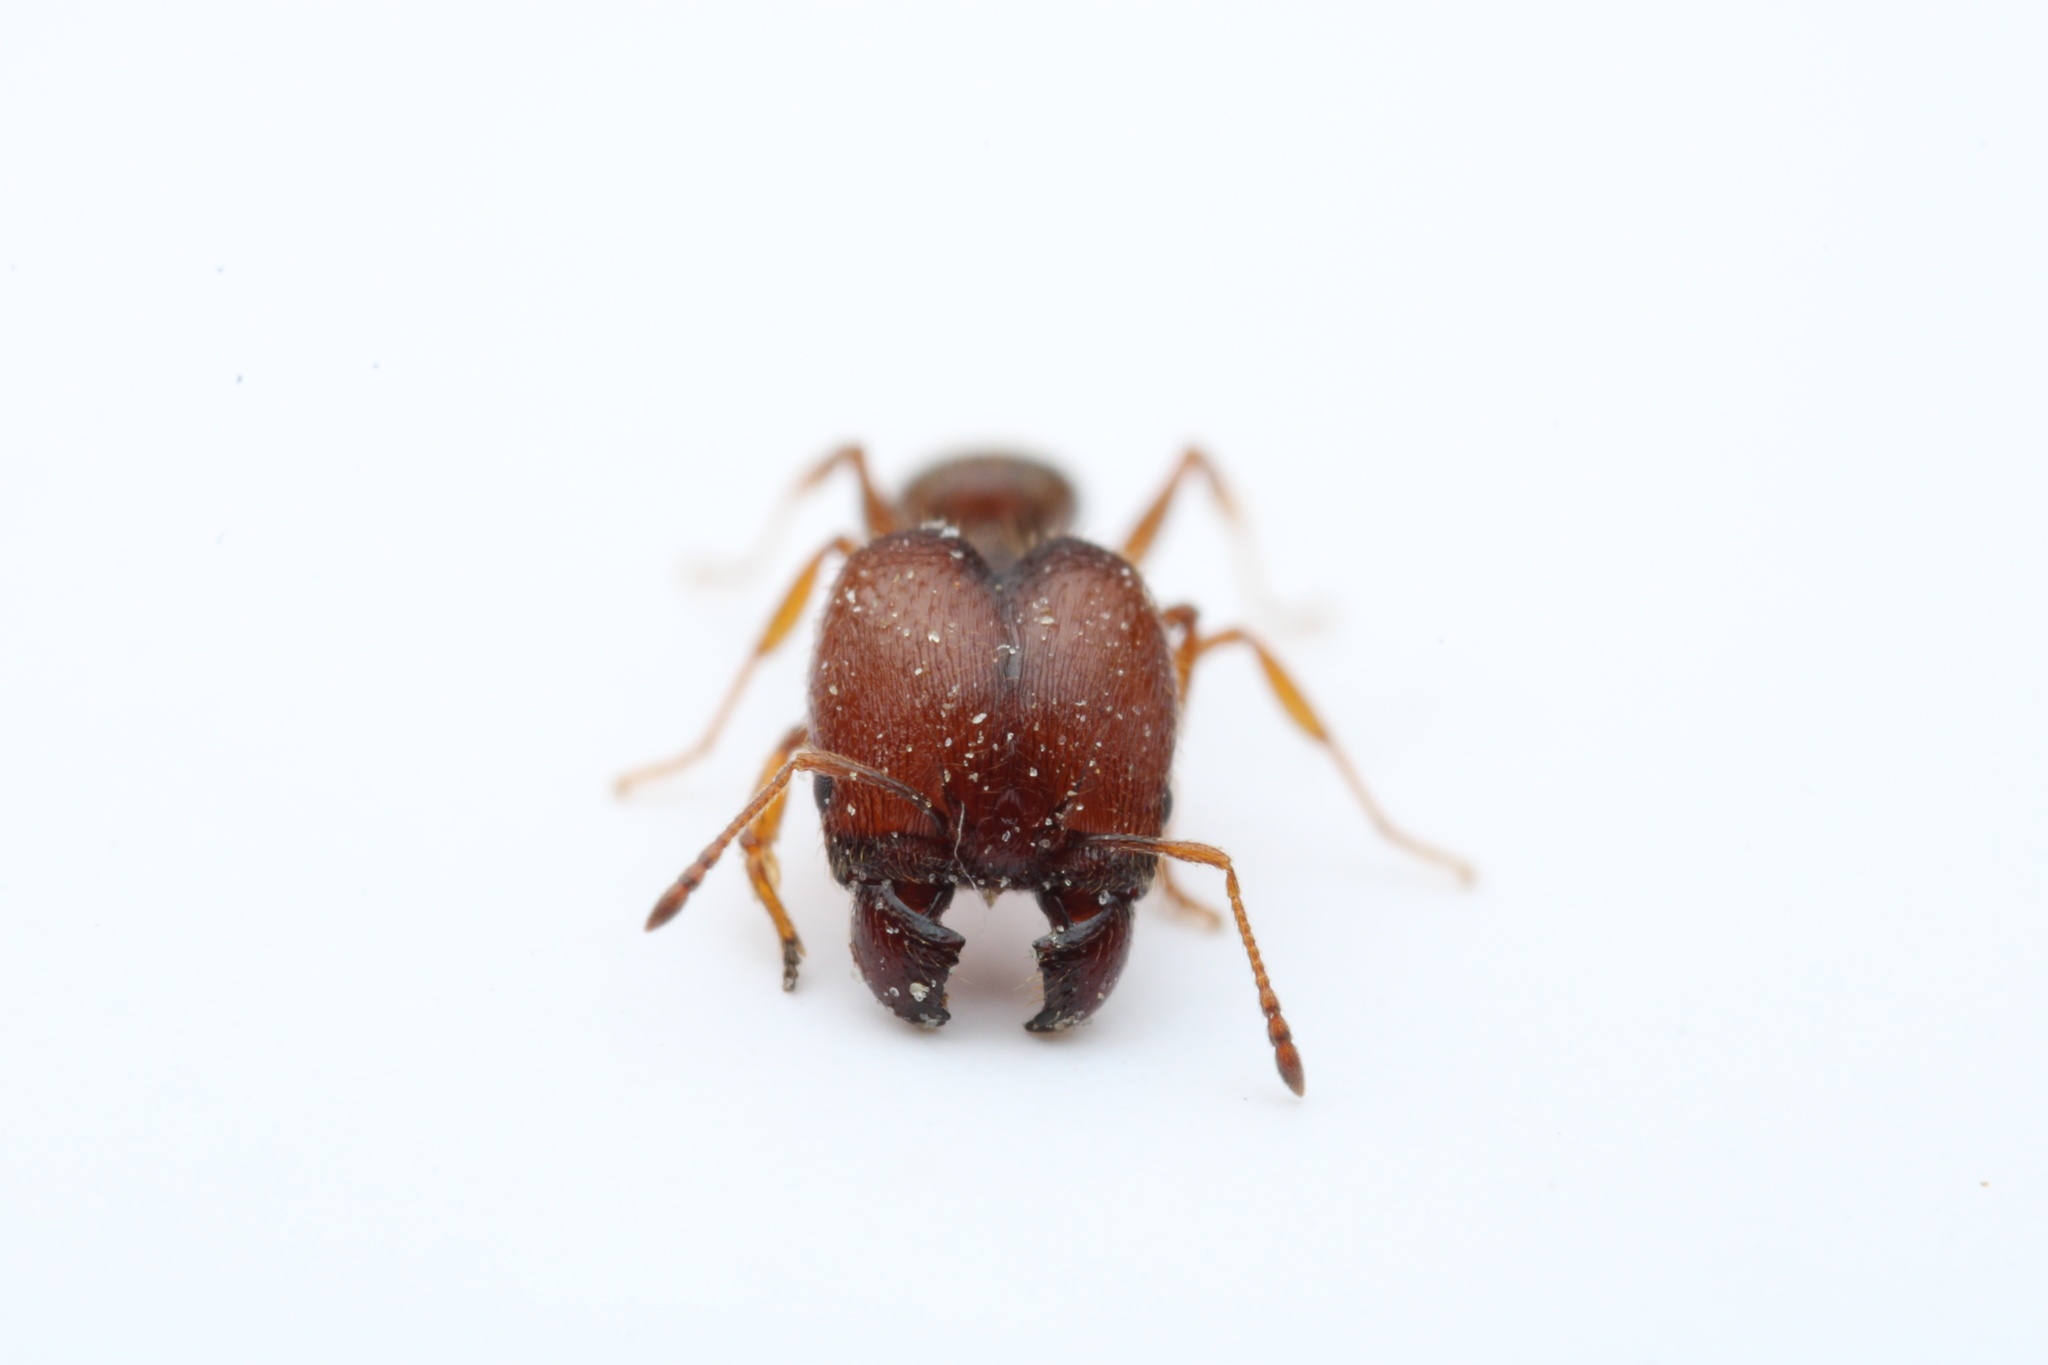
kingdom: Animalia
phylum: Arthropoda
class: Insecta
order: Hymenoptera
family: Formicidae
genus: Pheidole
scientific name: Pheidole pilifera
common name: Hairy big-headed ant
